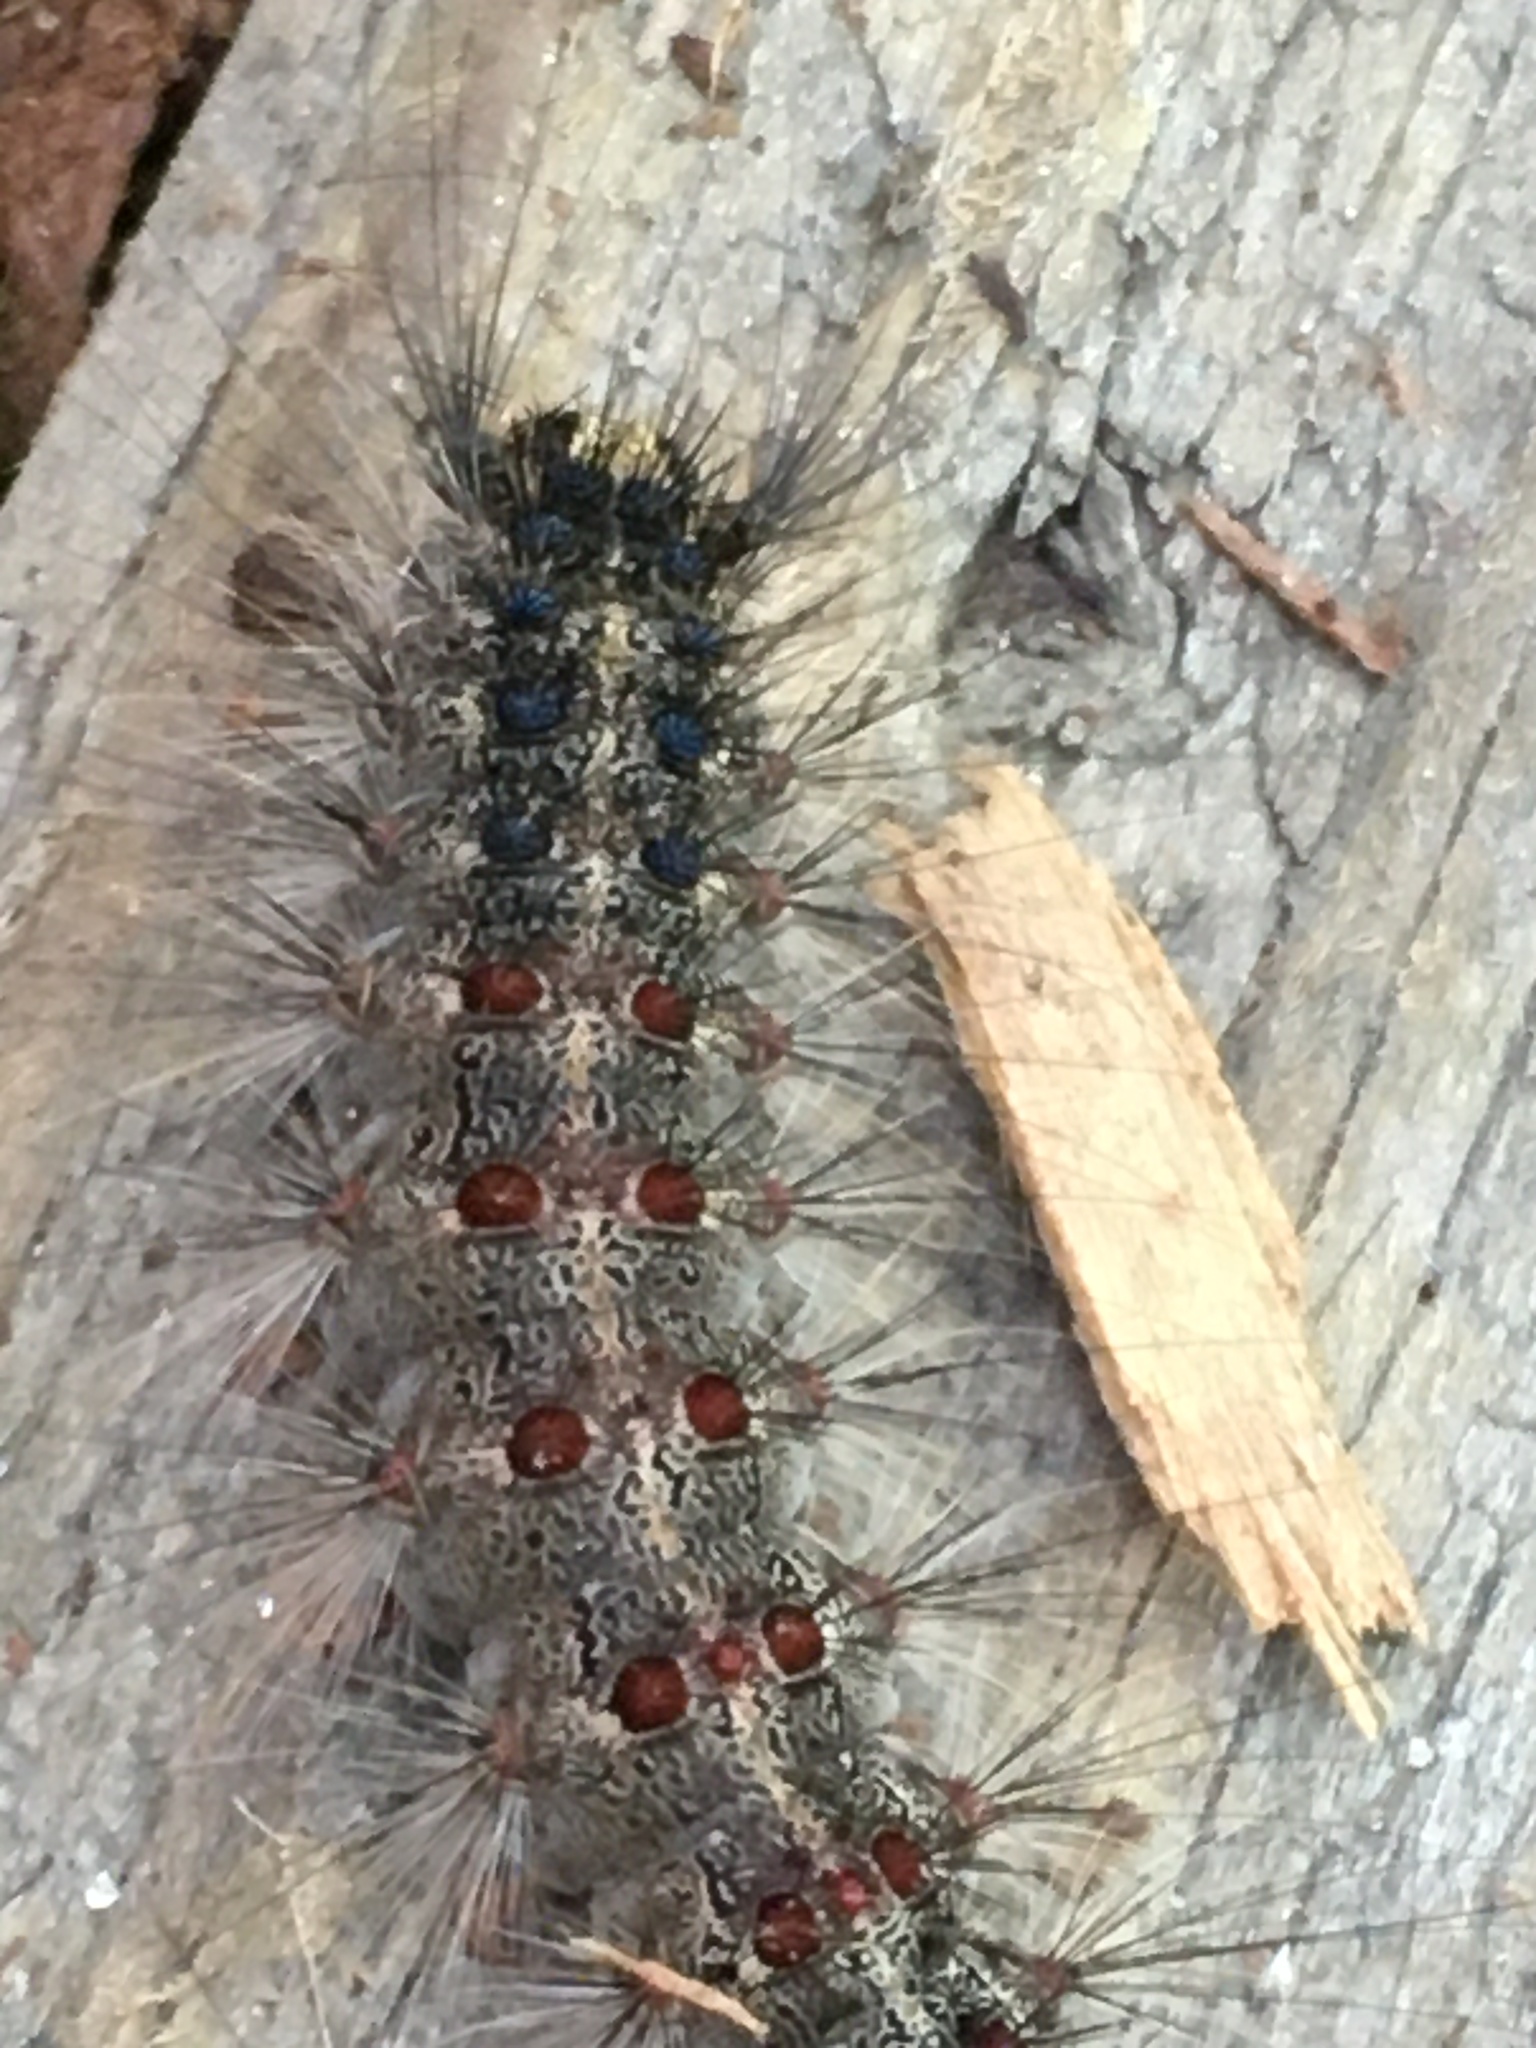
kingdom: Animalia
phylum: Arthropoda
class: Insecta
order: Lepidoptera
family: Erebidae
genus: Lymantria
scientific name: Lymantria dispar
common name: Gypsy moth
